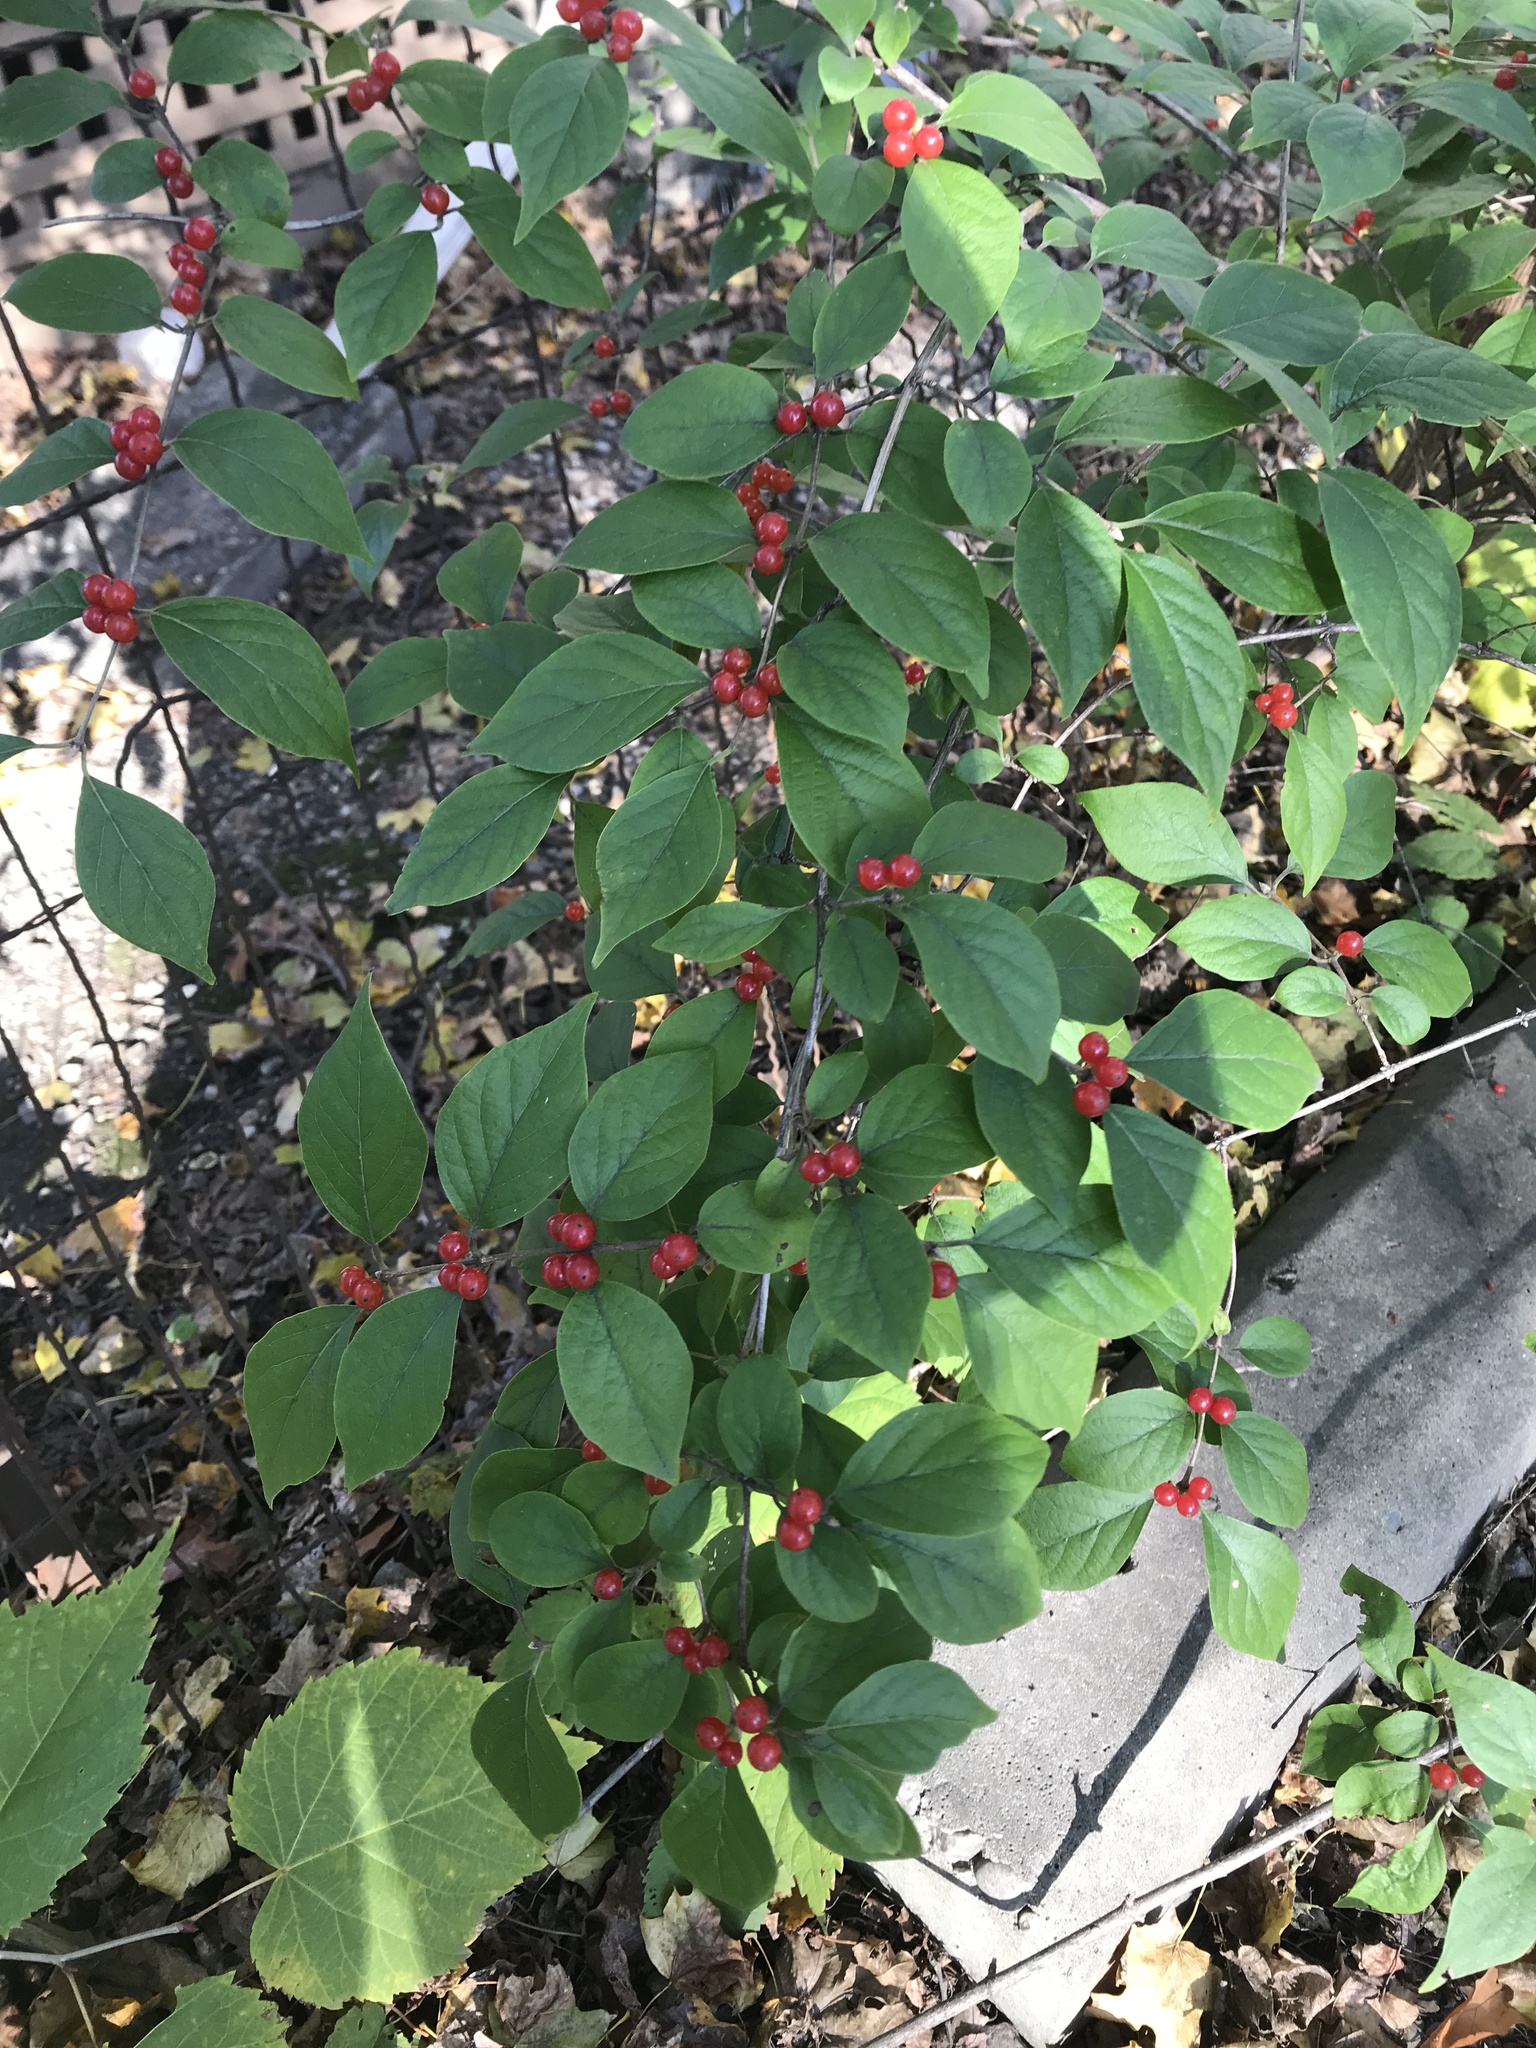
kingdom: Plantae
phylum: Tracheophyta
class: Magnoliopsida
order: Dipsacales
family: Caprifoliaceae
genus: Lonicera
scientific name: Lonicera maackii
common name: Amur honeysuckle
